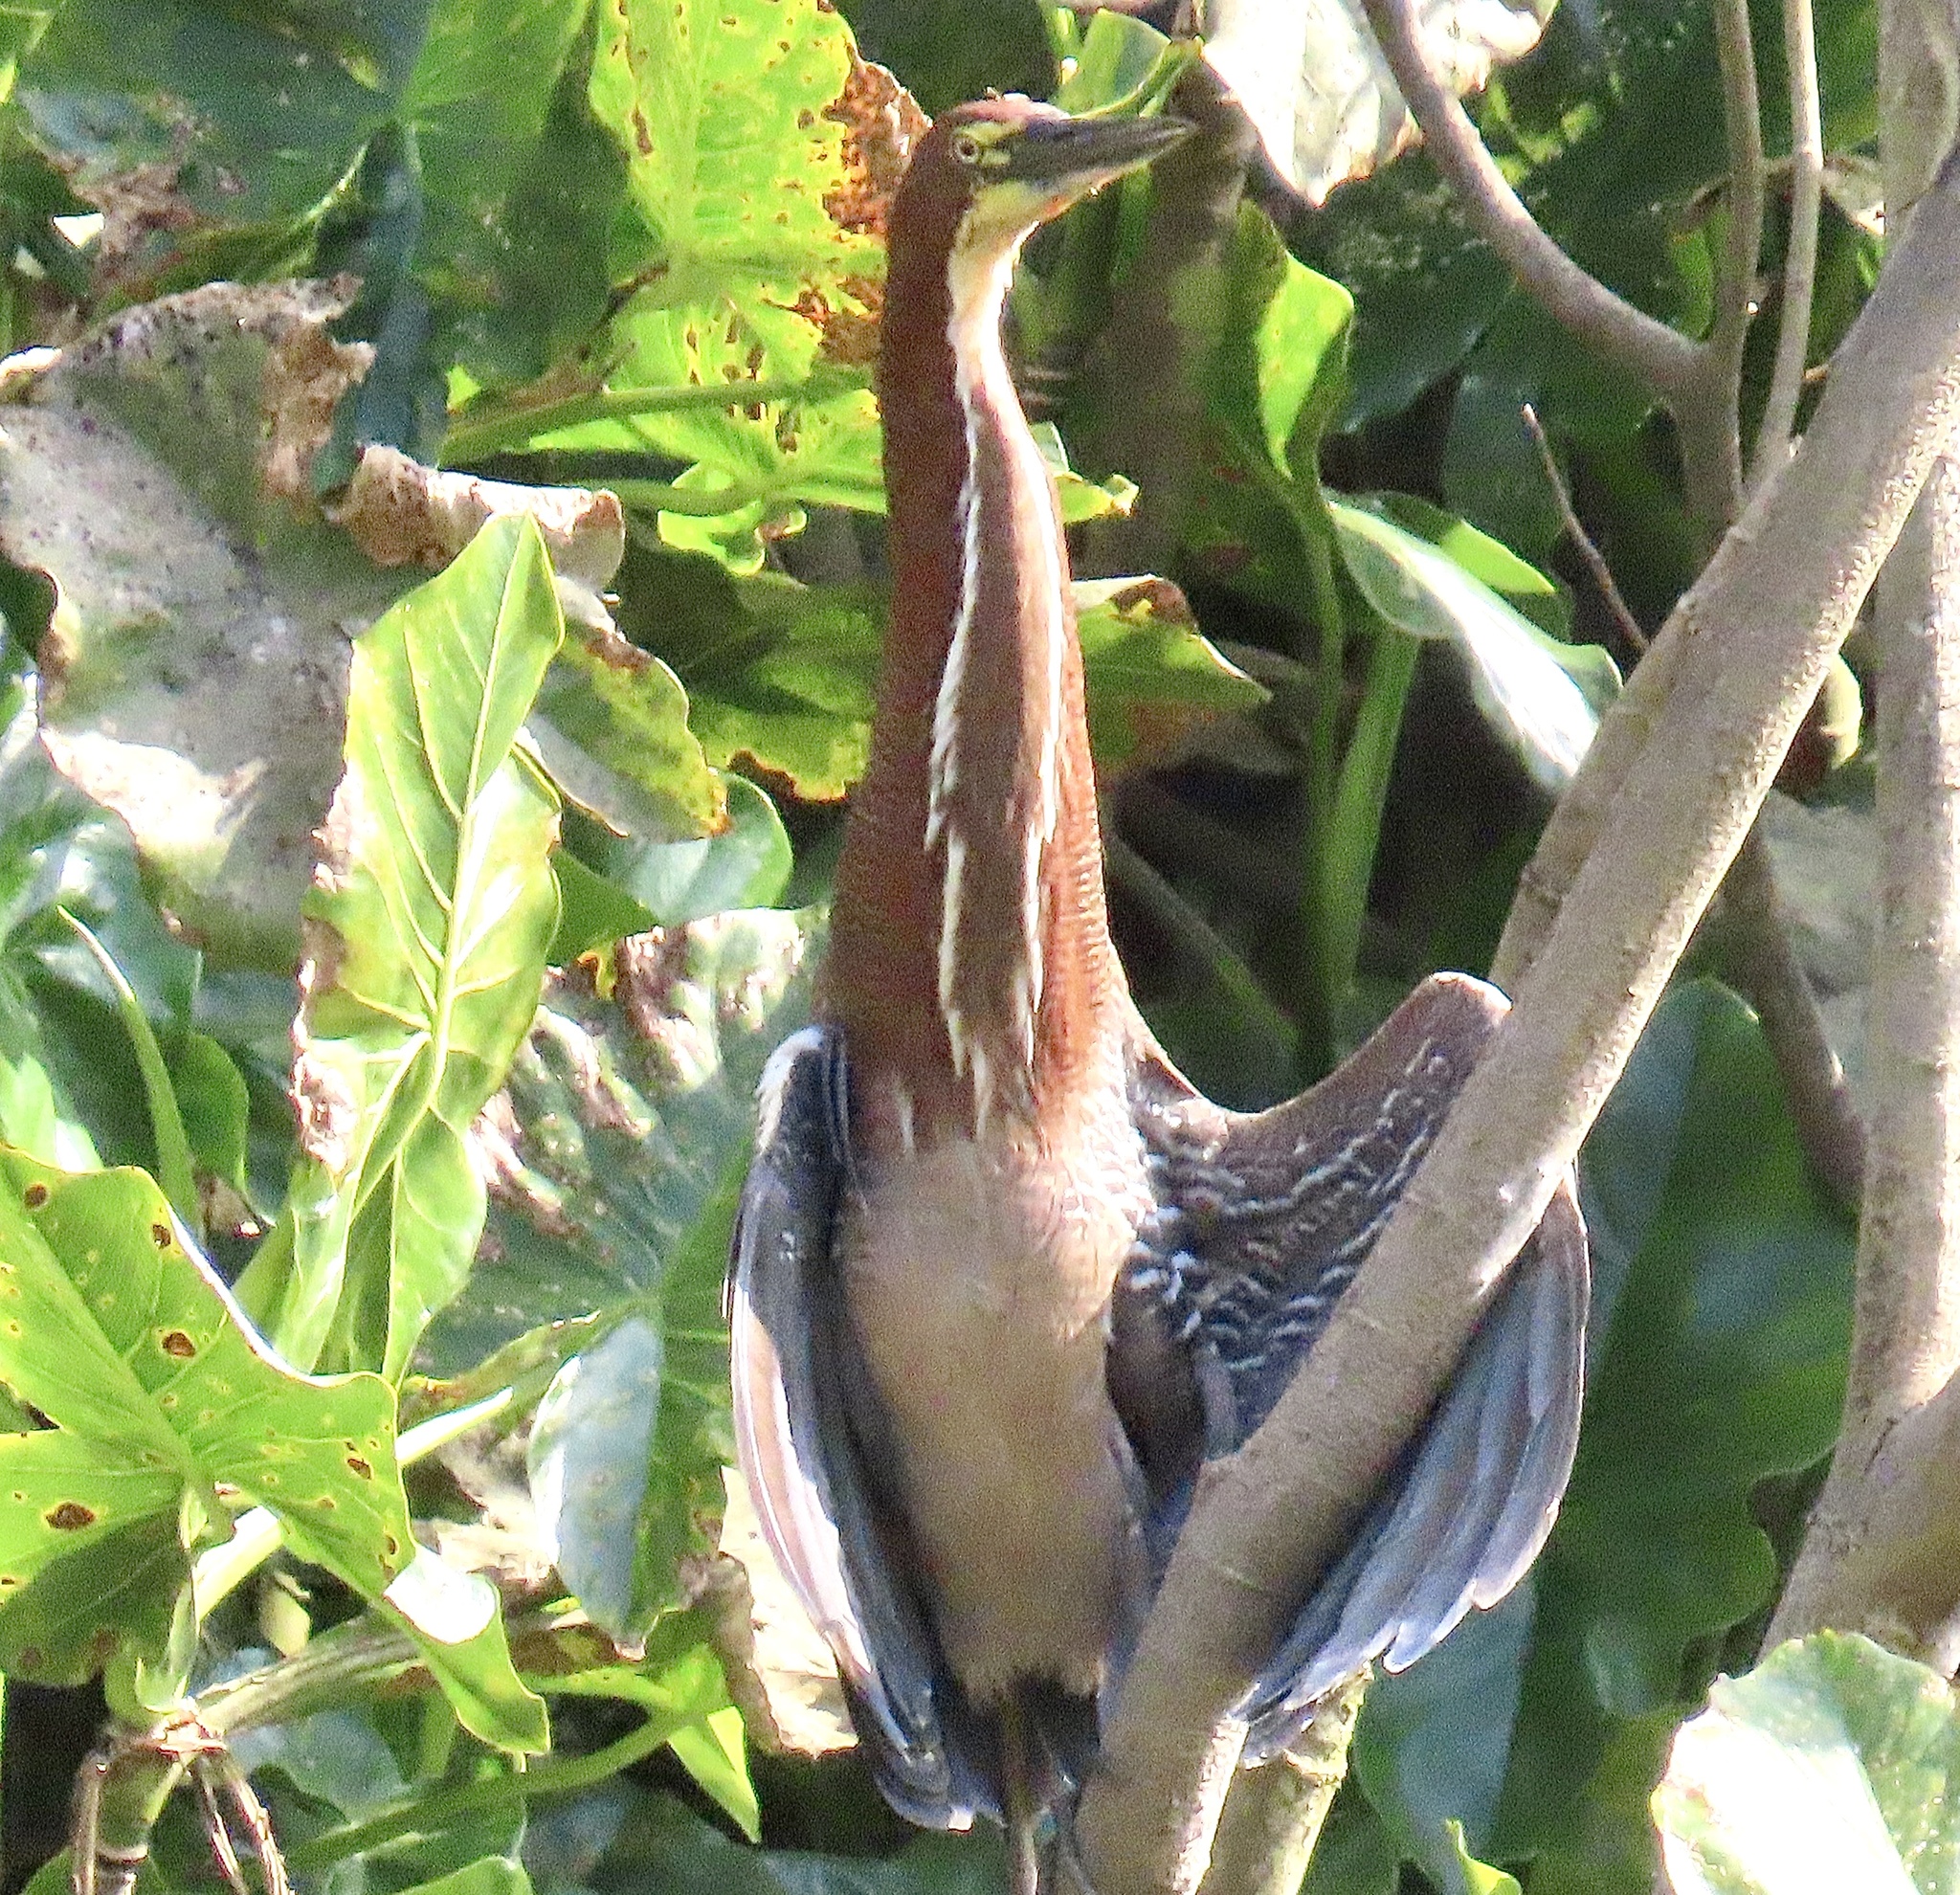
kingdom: Animalia
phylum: Chordata
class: Aves
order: Pelecaniformes
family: Ardeidae
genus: Tigrisoma
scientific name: Tigrisoma lineatum
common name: Rufescent tiger-heron
